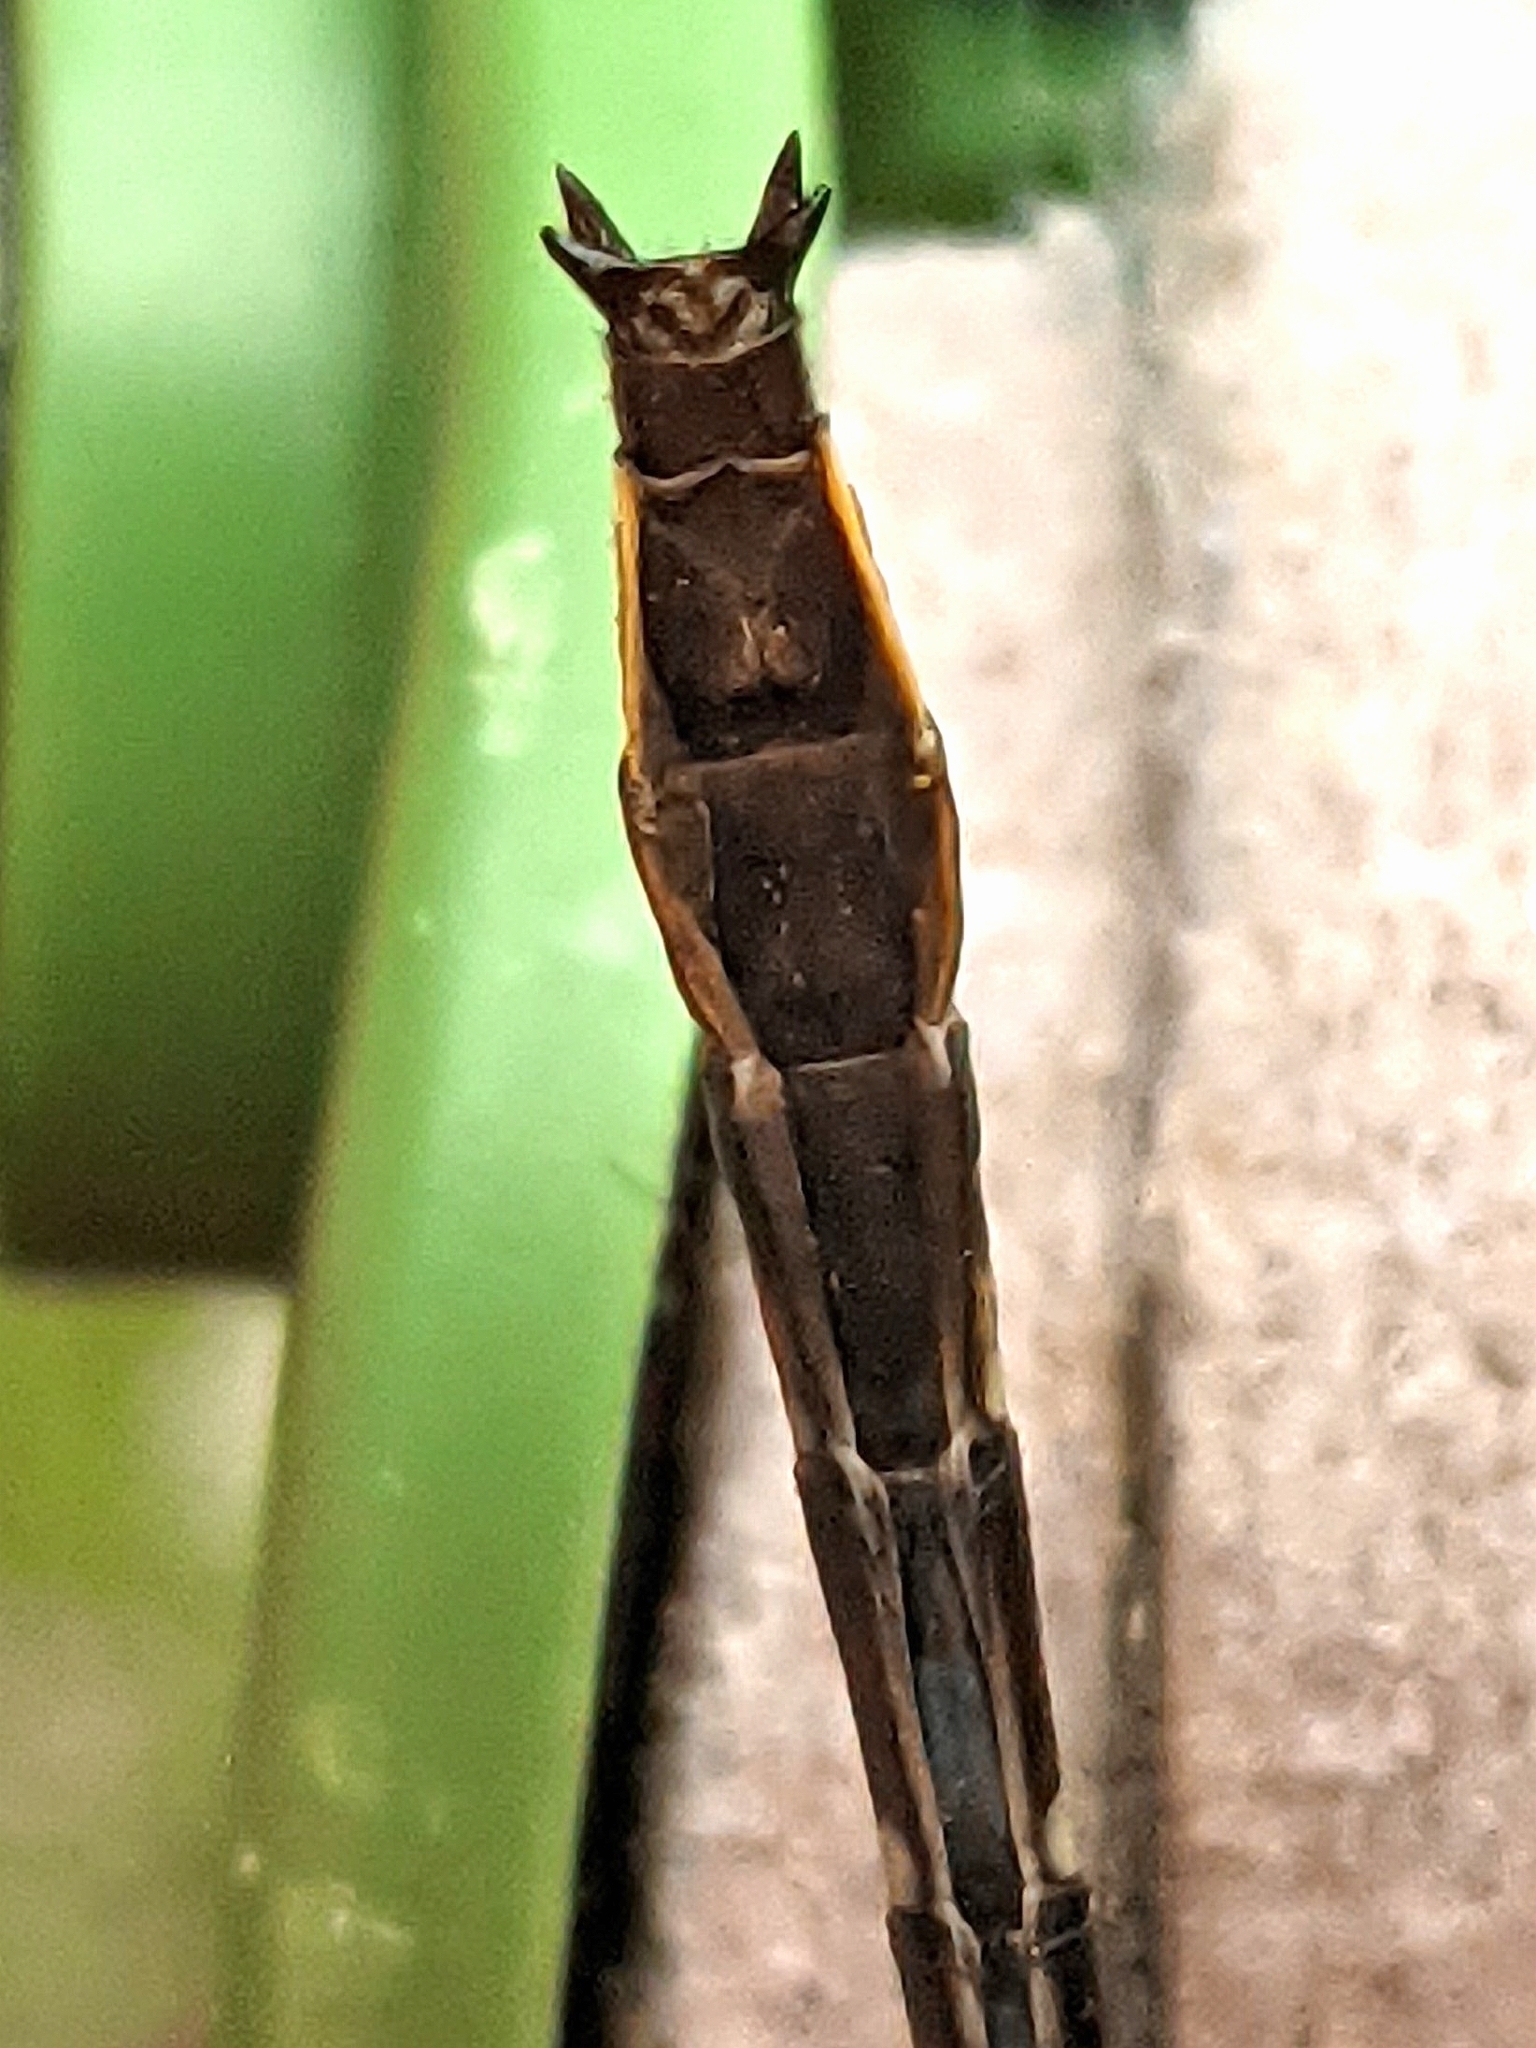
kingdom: Animalia
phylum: Arthropoda
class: Insecta
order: Odonata
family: Gomphidae
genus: Phanogomphus
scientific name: Phanogomphus exilis
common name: Lancet clubtail
